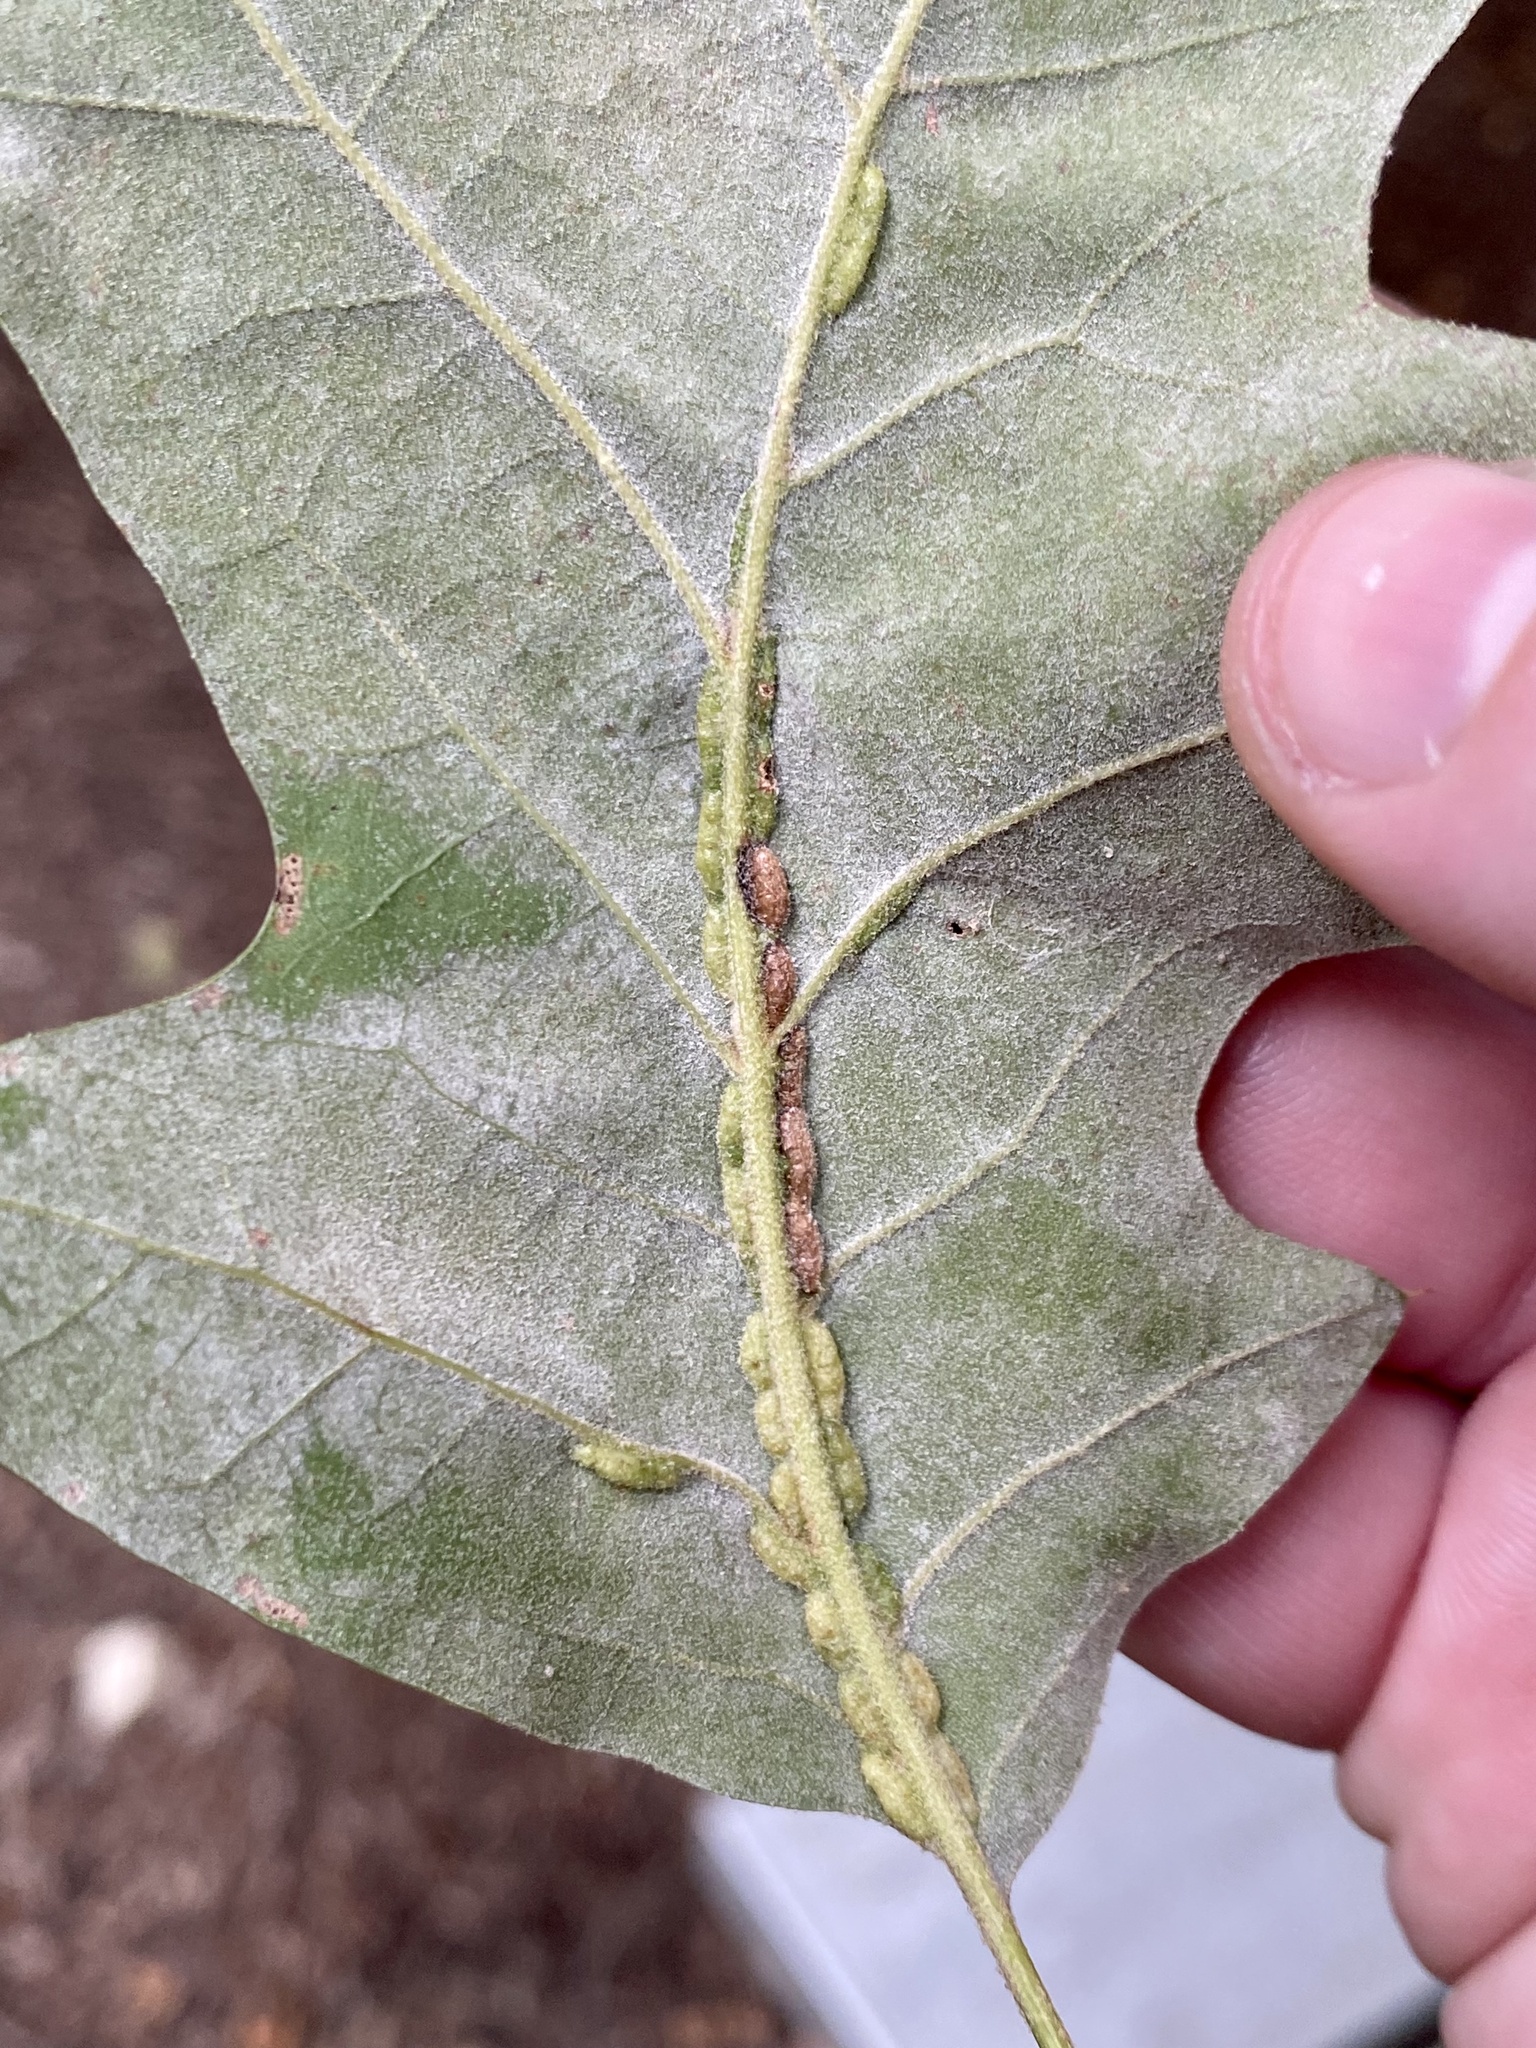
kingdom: Animalia
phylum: Arthropoda
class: Insecta
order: Diptera
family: Cecidomyiidae
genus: Macrodiplosis
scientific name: Macrodiplosis q-orucum
